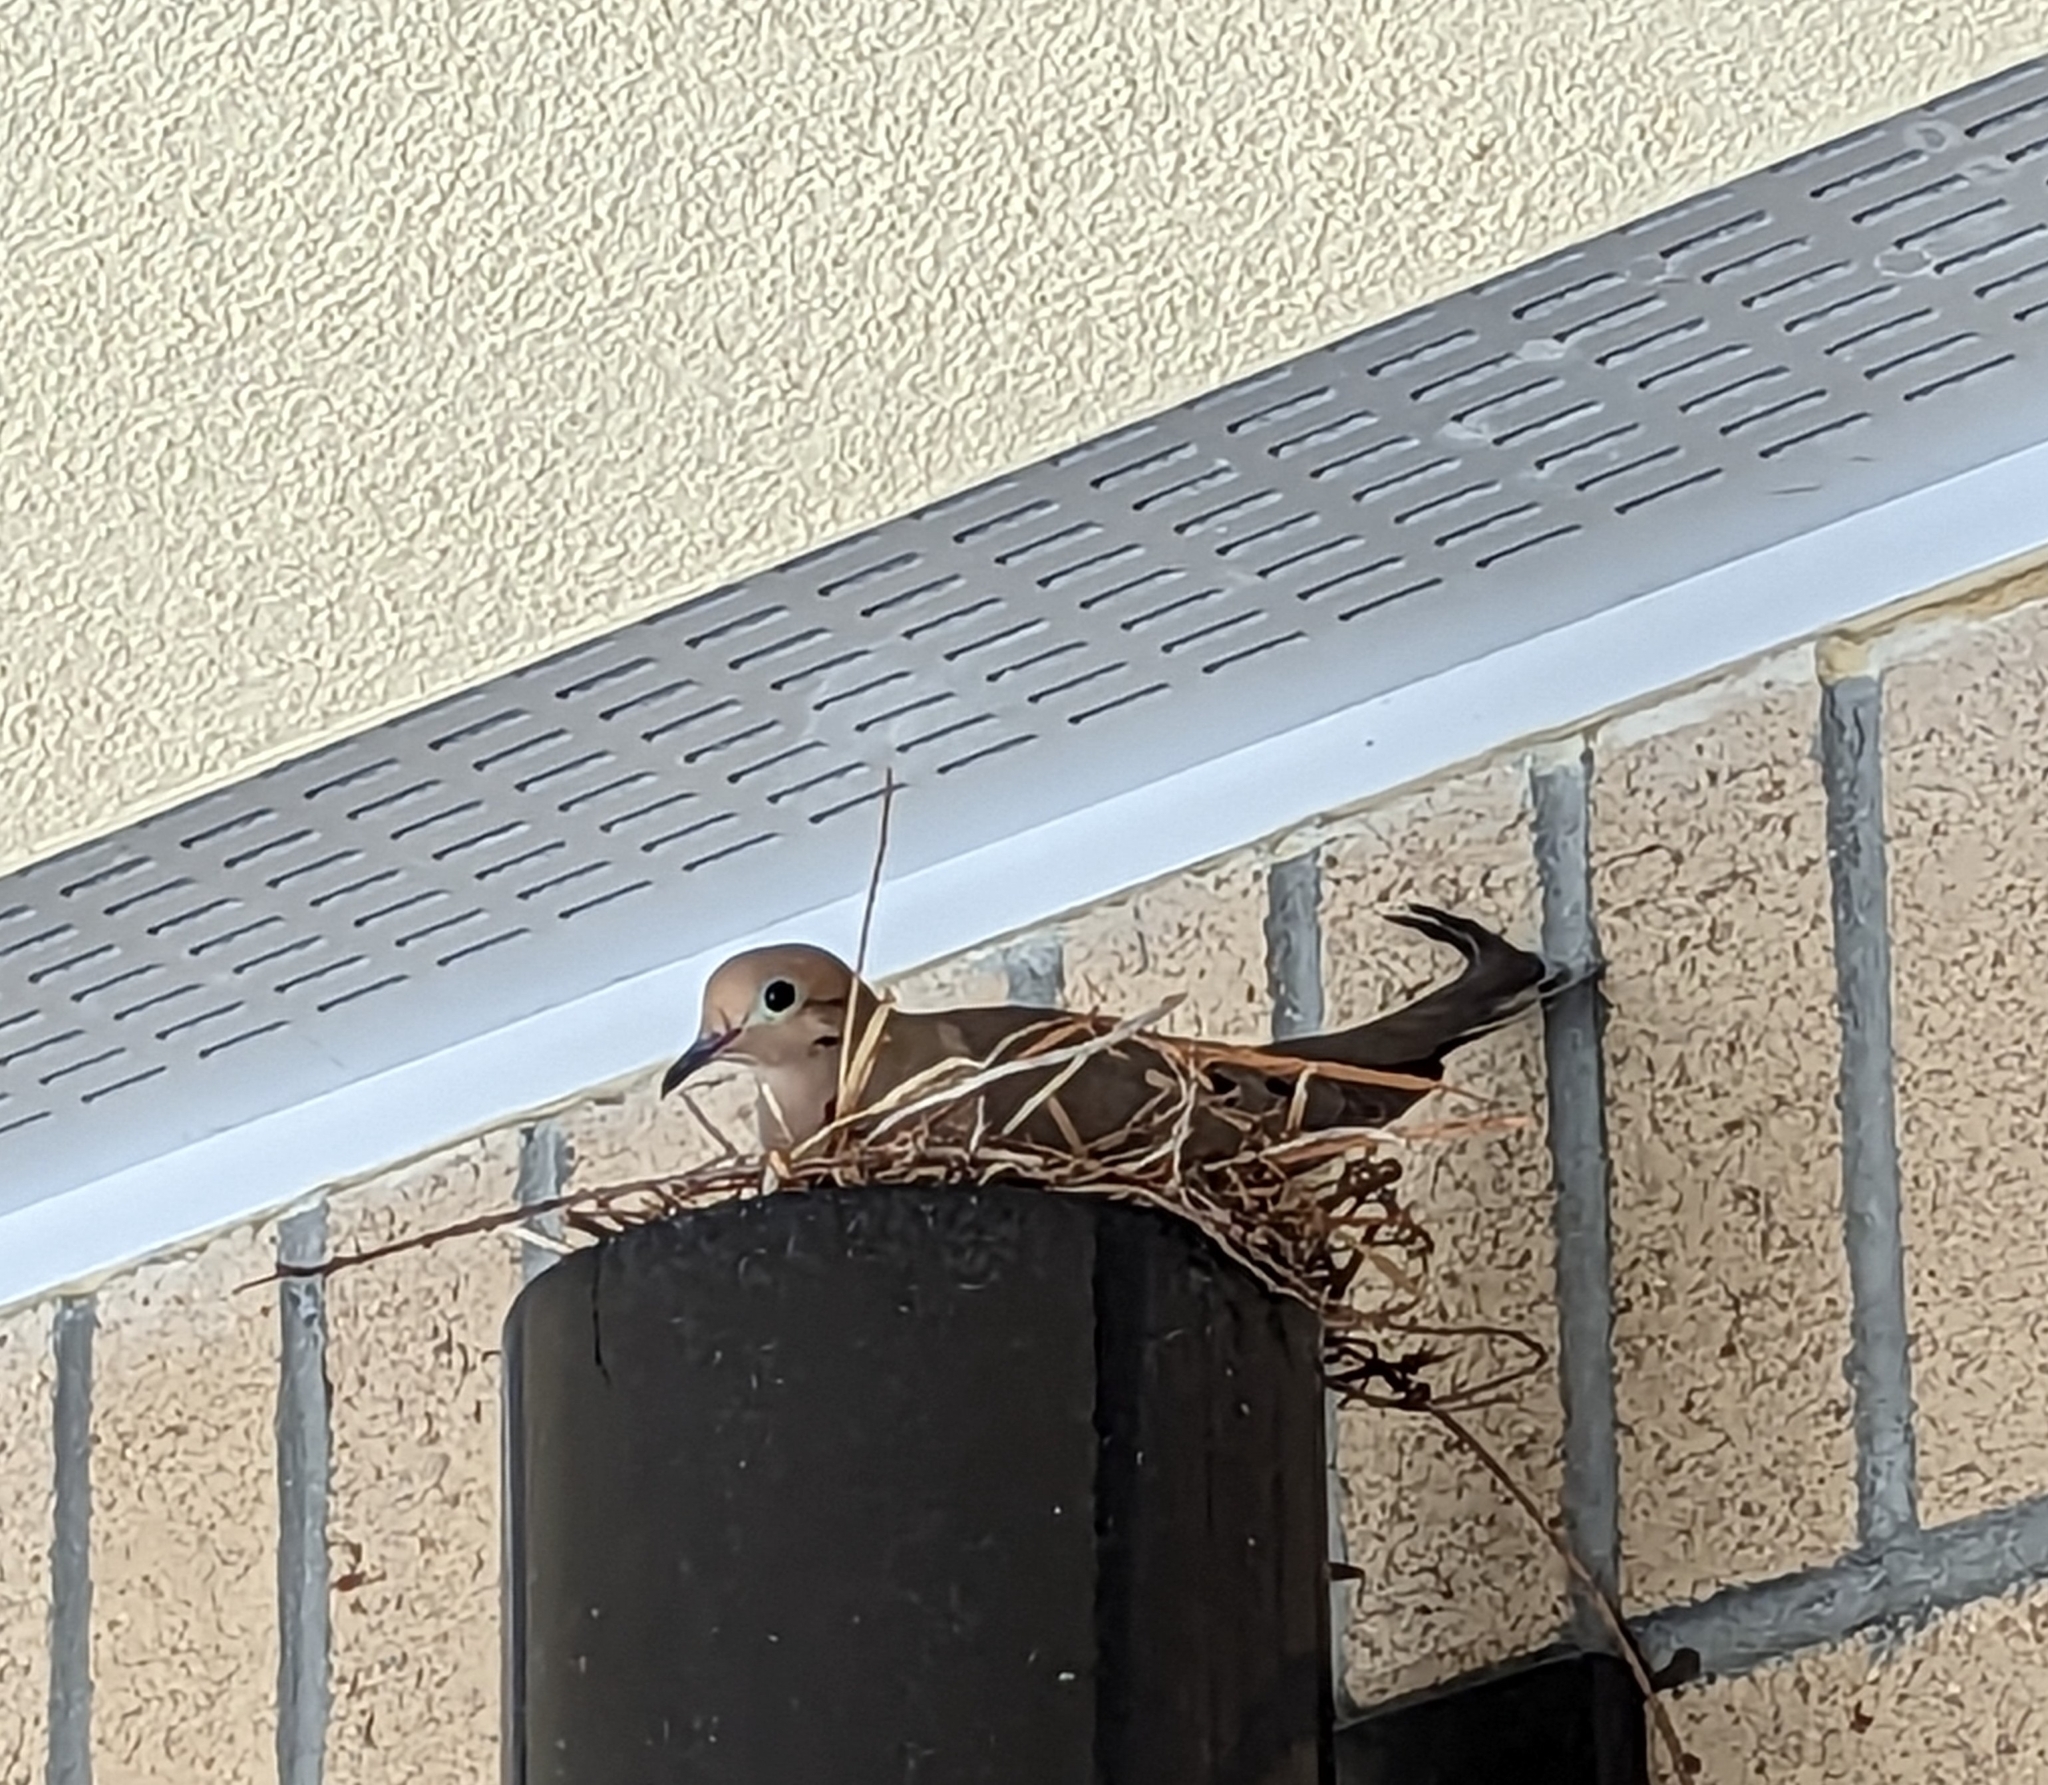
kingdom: Animalia
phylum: Chordata
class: Aves
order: Columbiformes
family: Columbidae
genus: Zenaida
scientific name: Zenaida macroura
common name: Mourning dove
